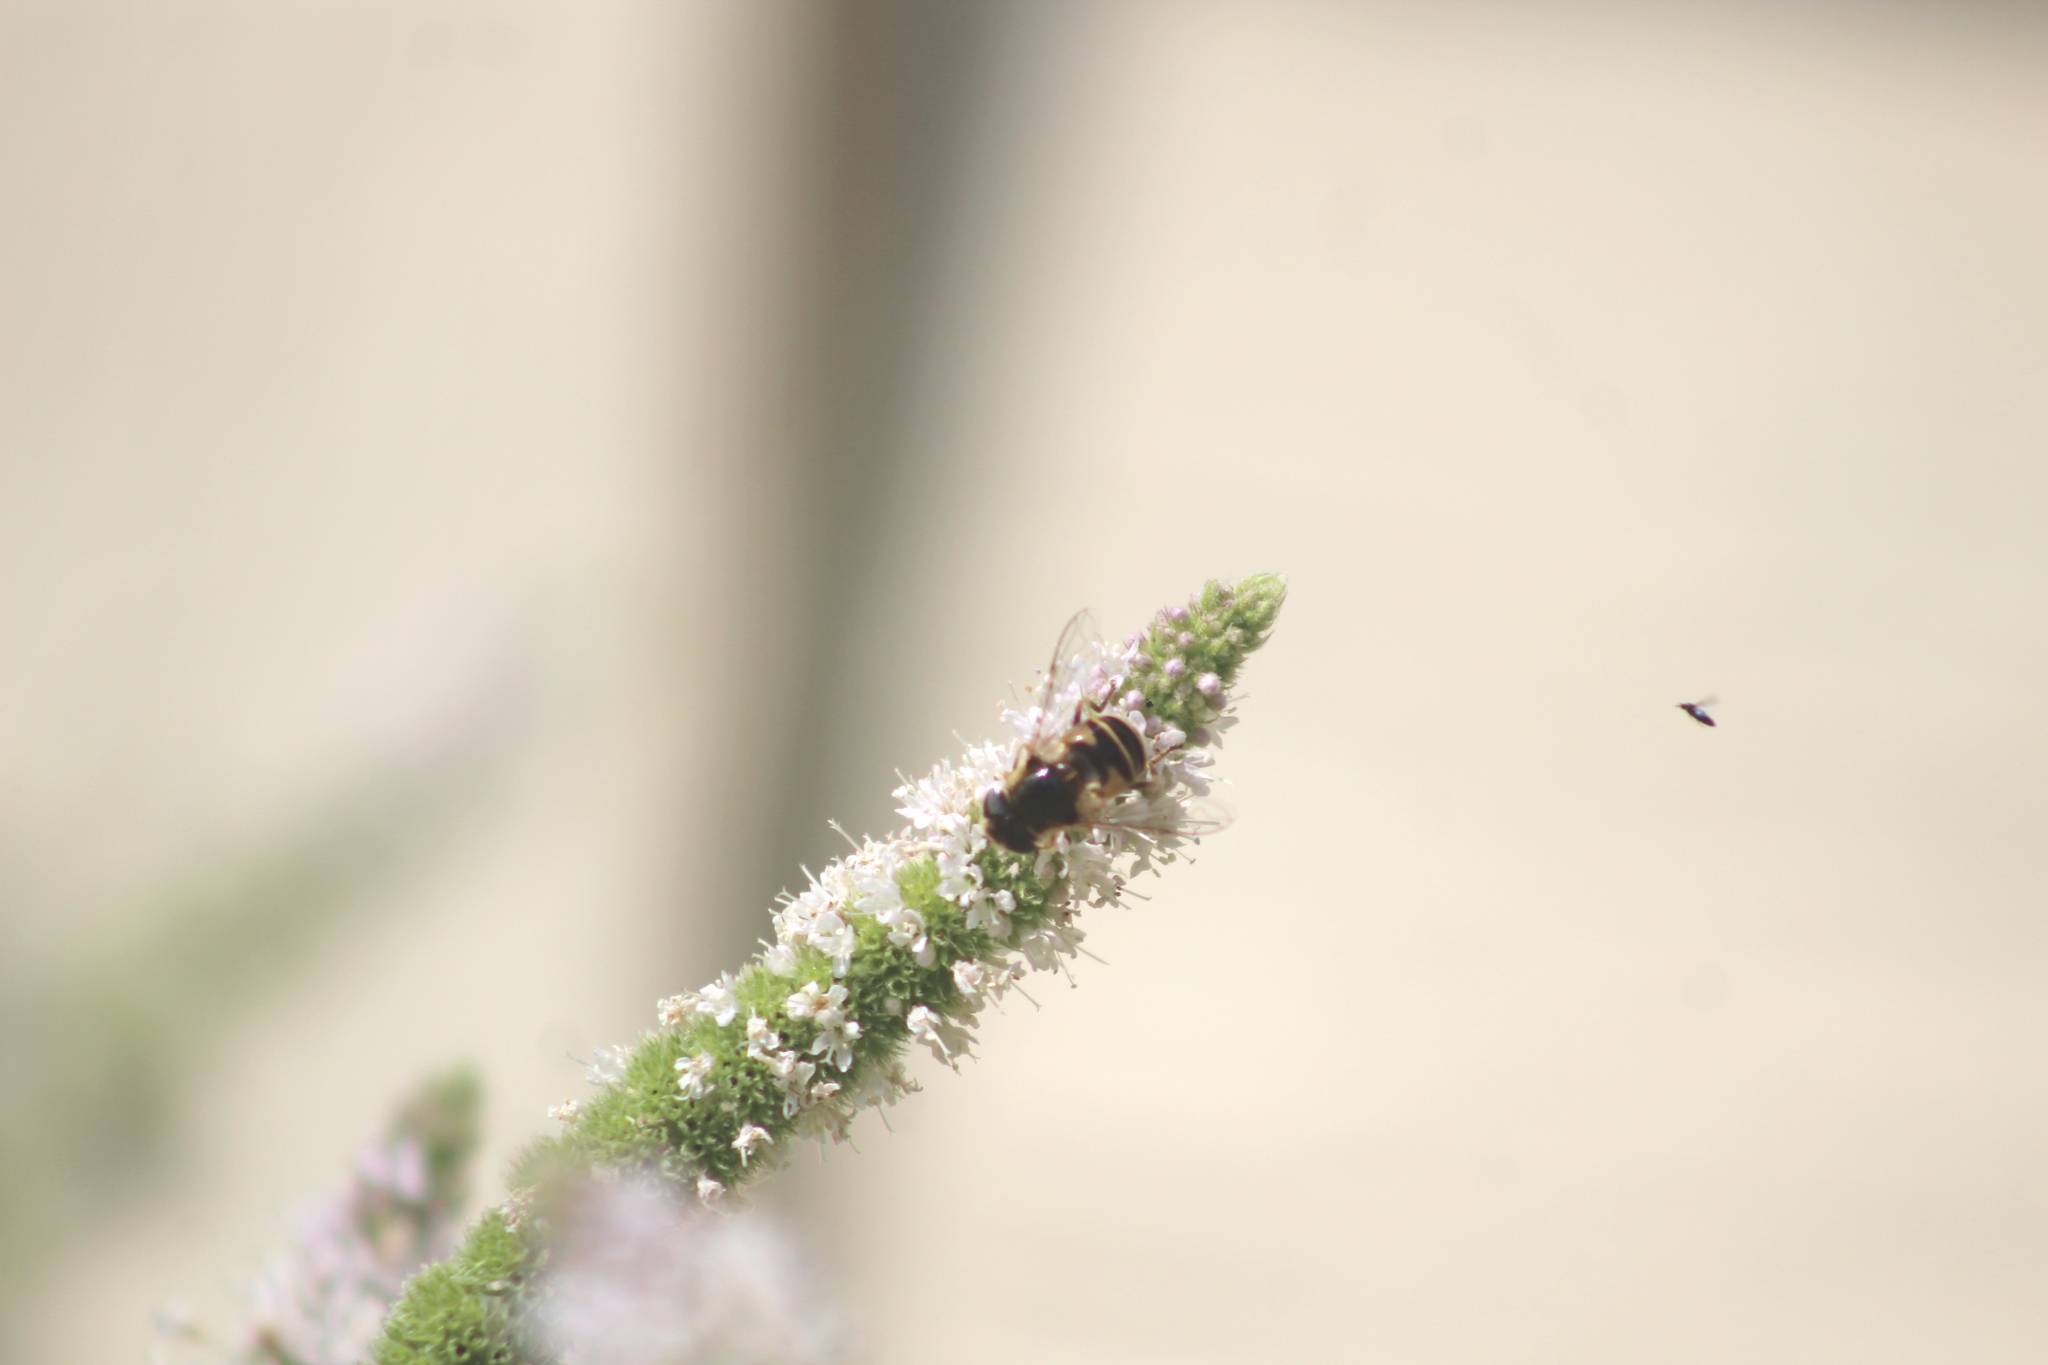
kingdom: Animalia
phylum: Arthropoda
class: Insecta
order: Diptera
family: Syrphidae
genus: Eristalis
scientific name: Eristalis nemorum
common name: Orange-spined drone fly
